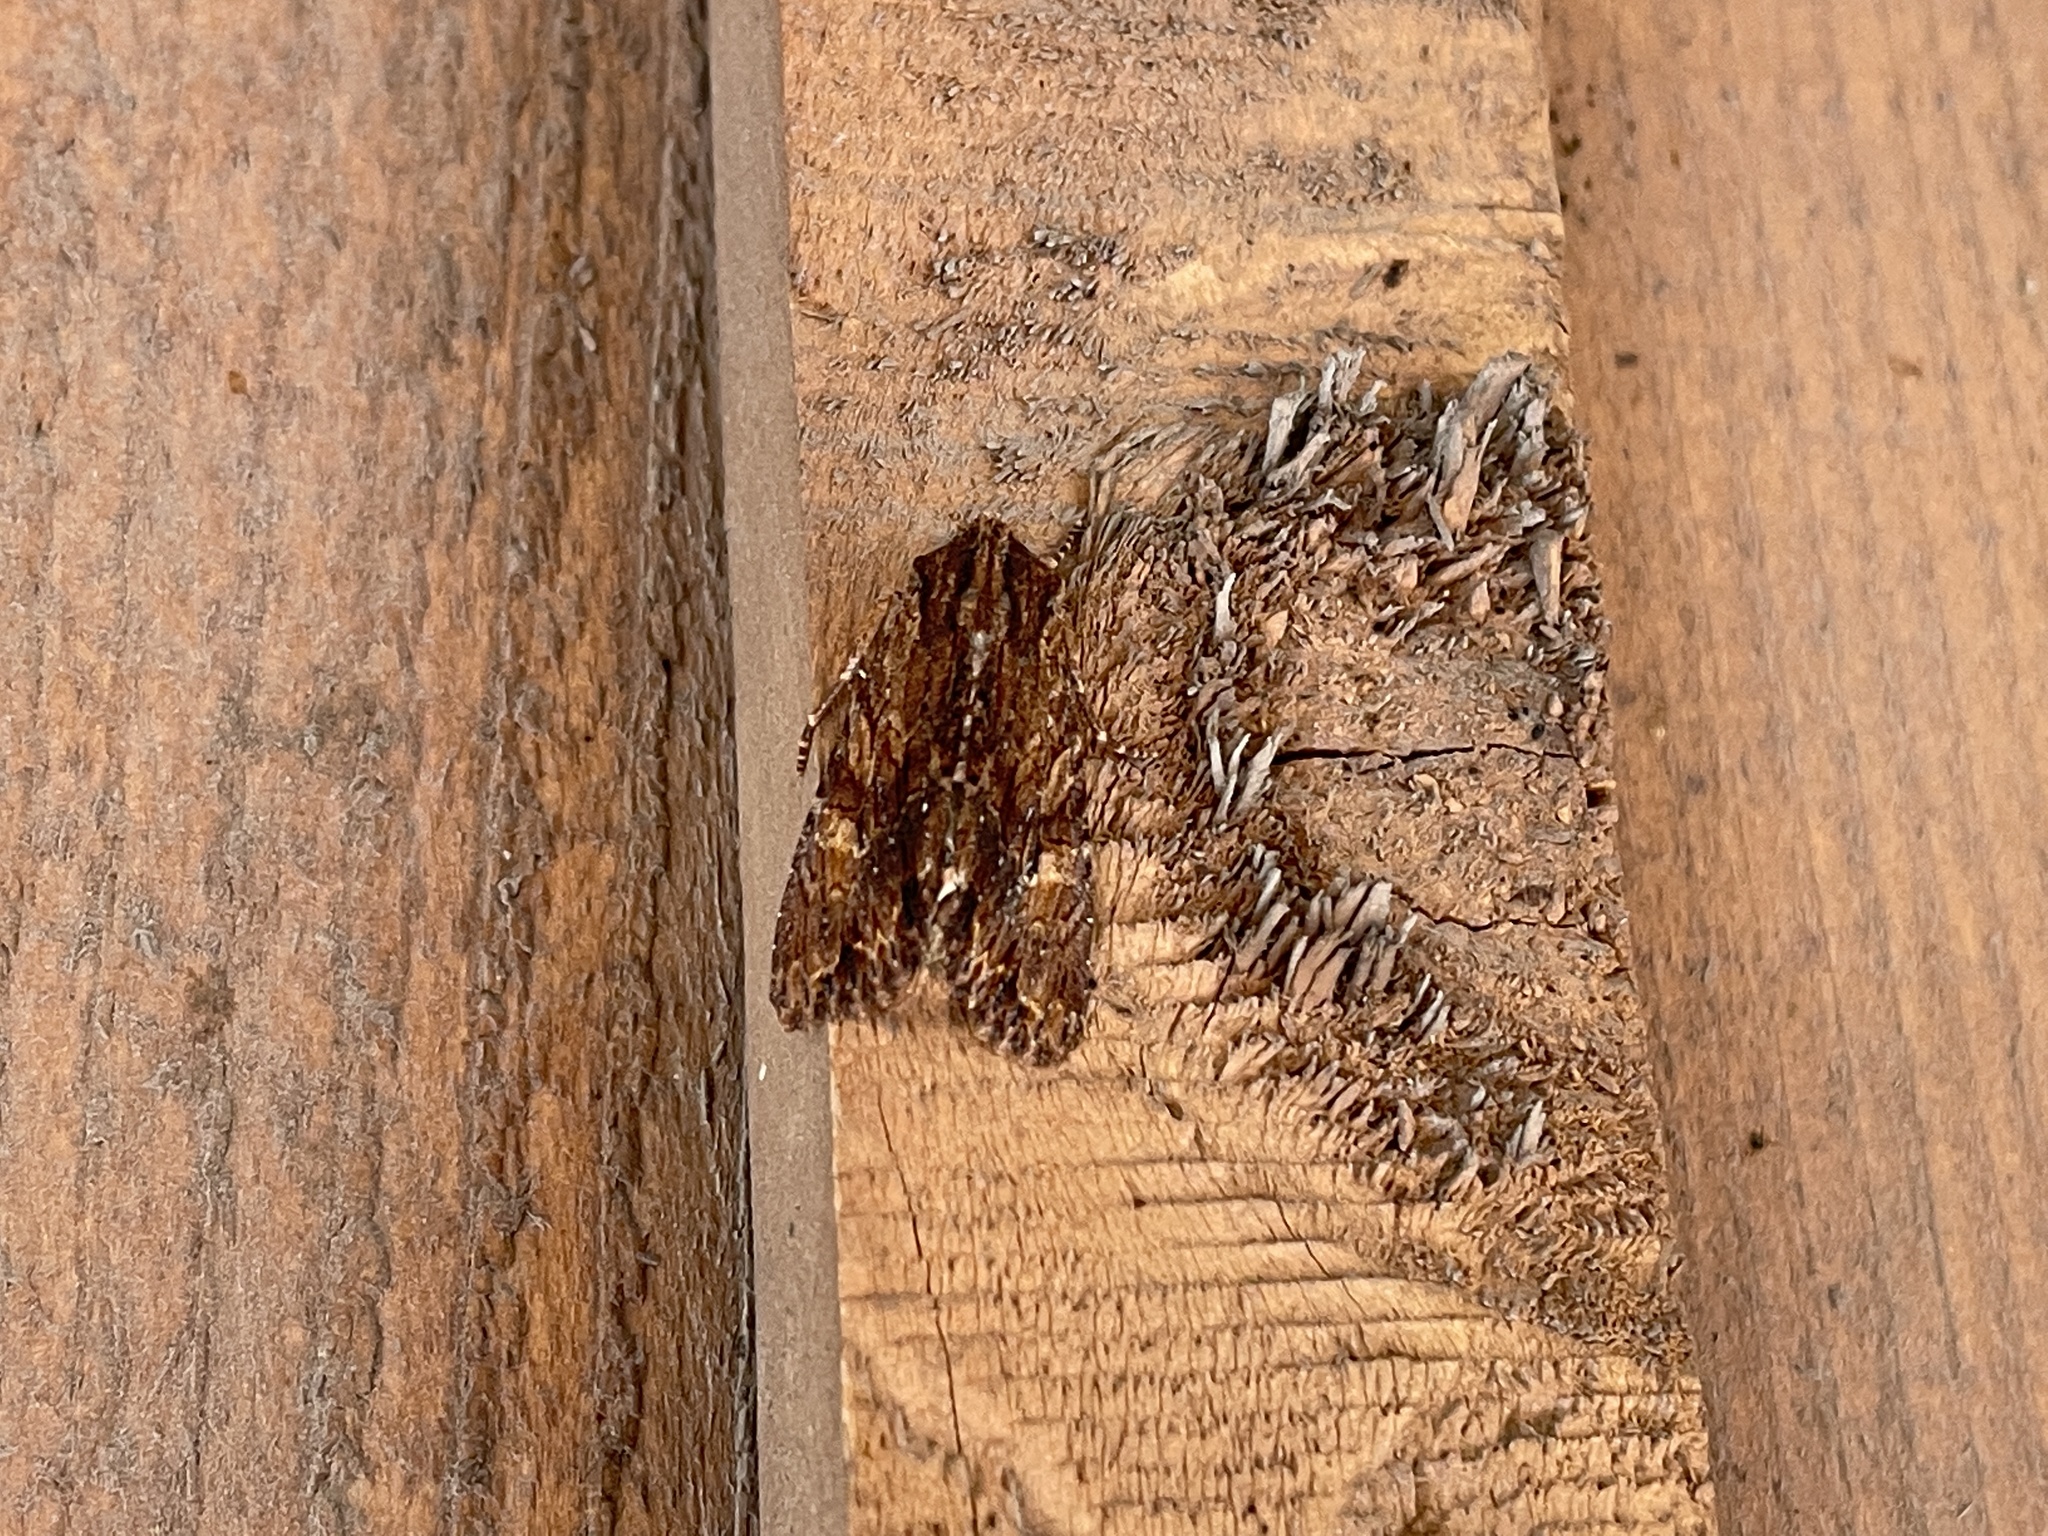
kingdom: Animalia
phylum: Arthropoda
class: Insecta
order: Lepidoptera
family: Noctuidae
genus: Apamea
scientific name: Apamea atrosuffusa
